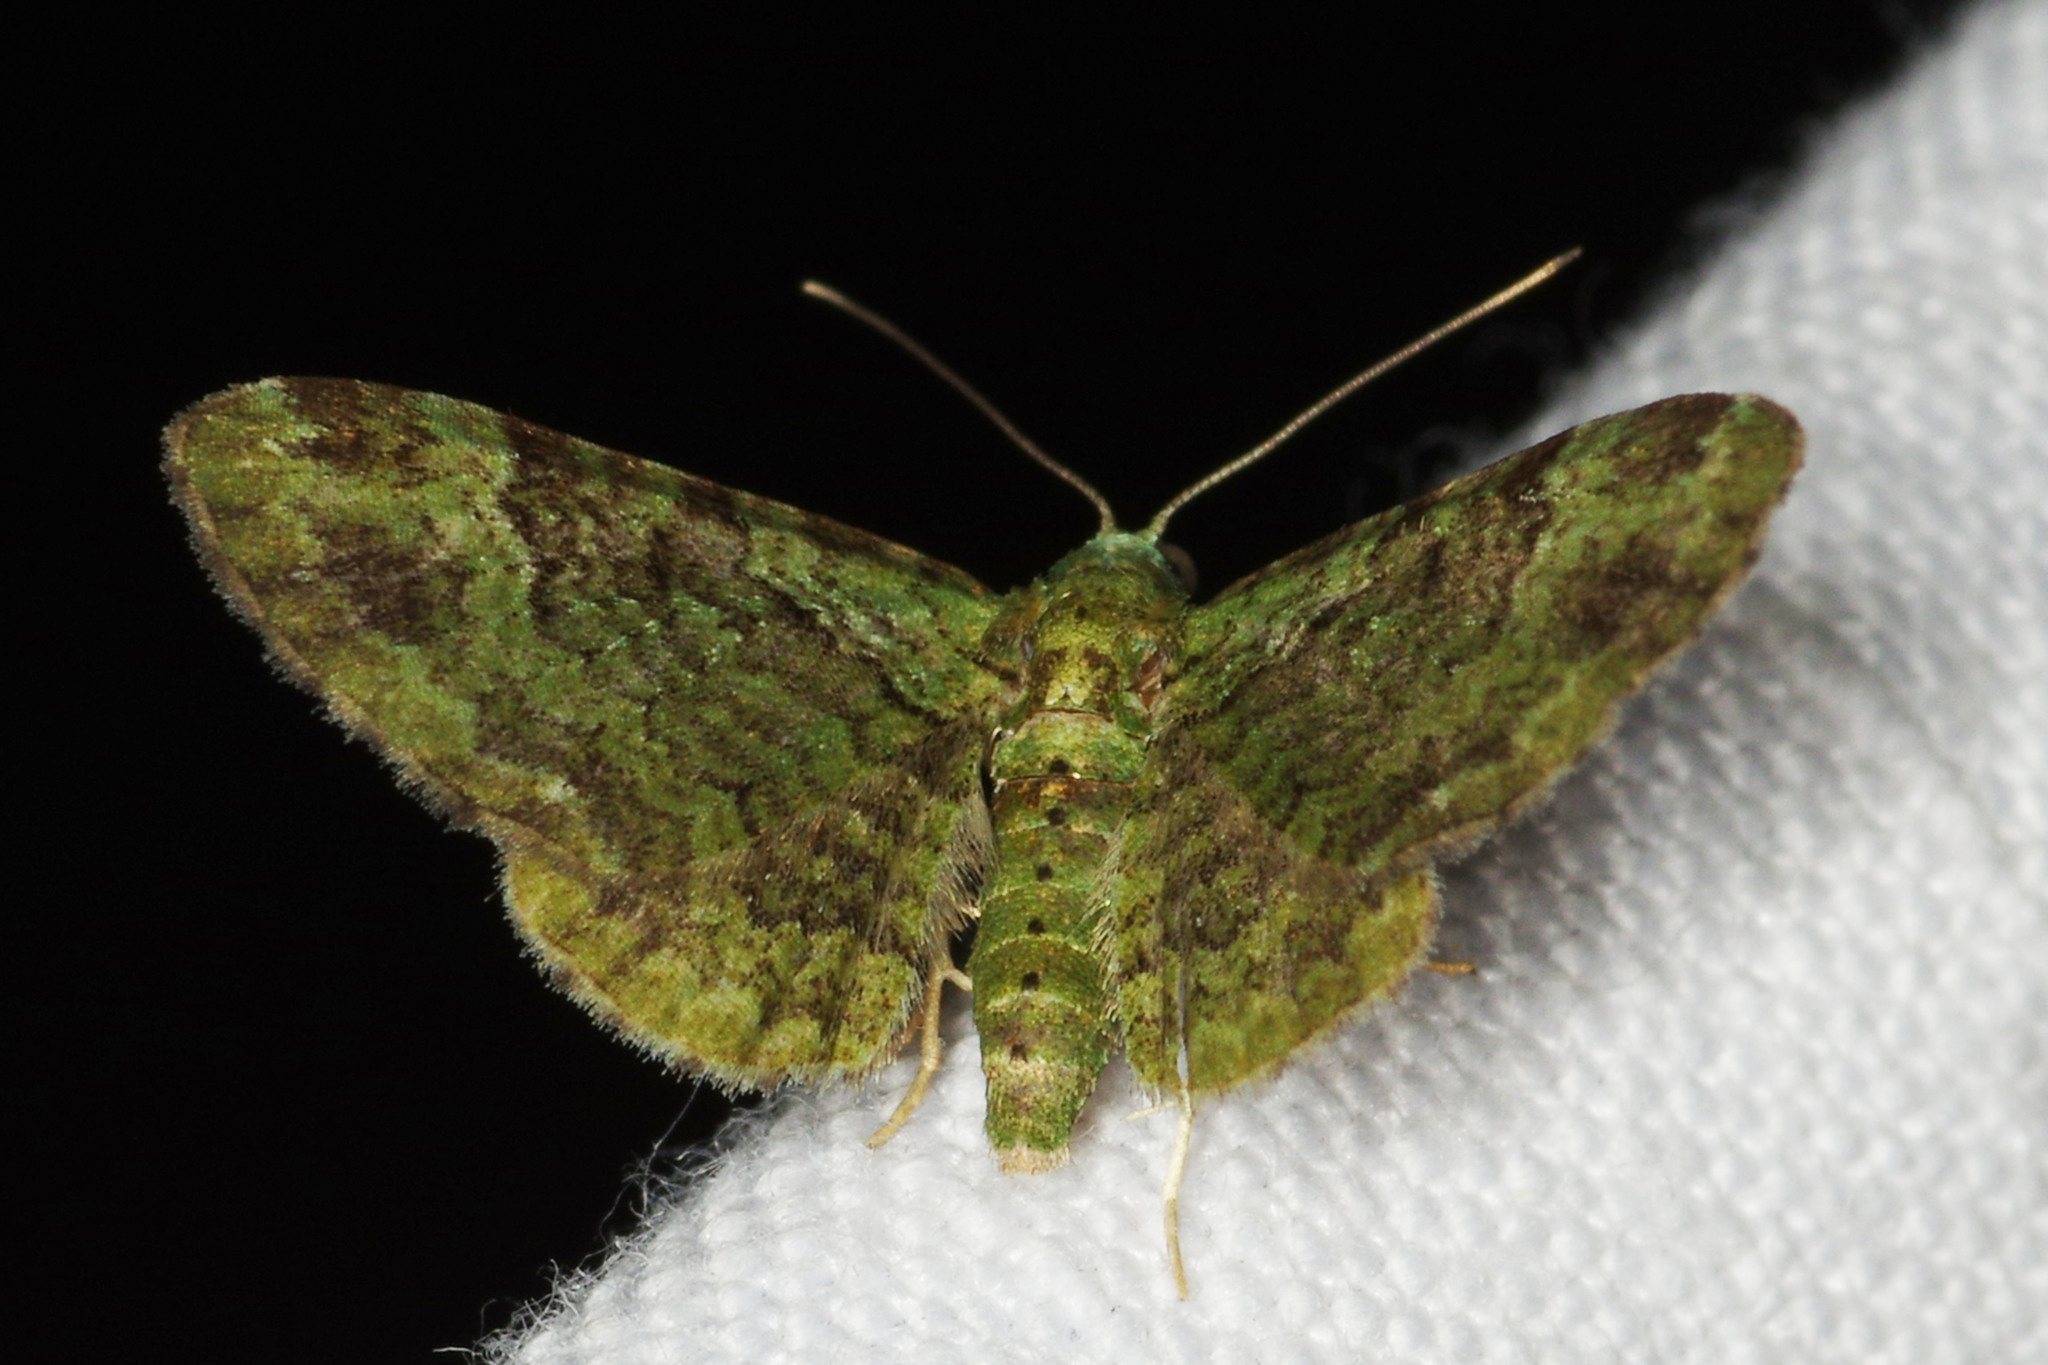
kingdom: Animalia
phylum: Arthropoda
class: Insecta
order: Lepidoptera
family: Geometridae
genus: Pasiphila
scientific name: Pasiphila rectangulata
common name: Green pug
